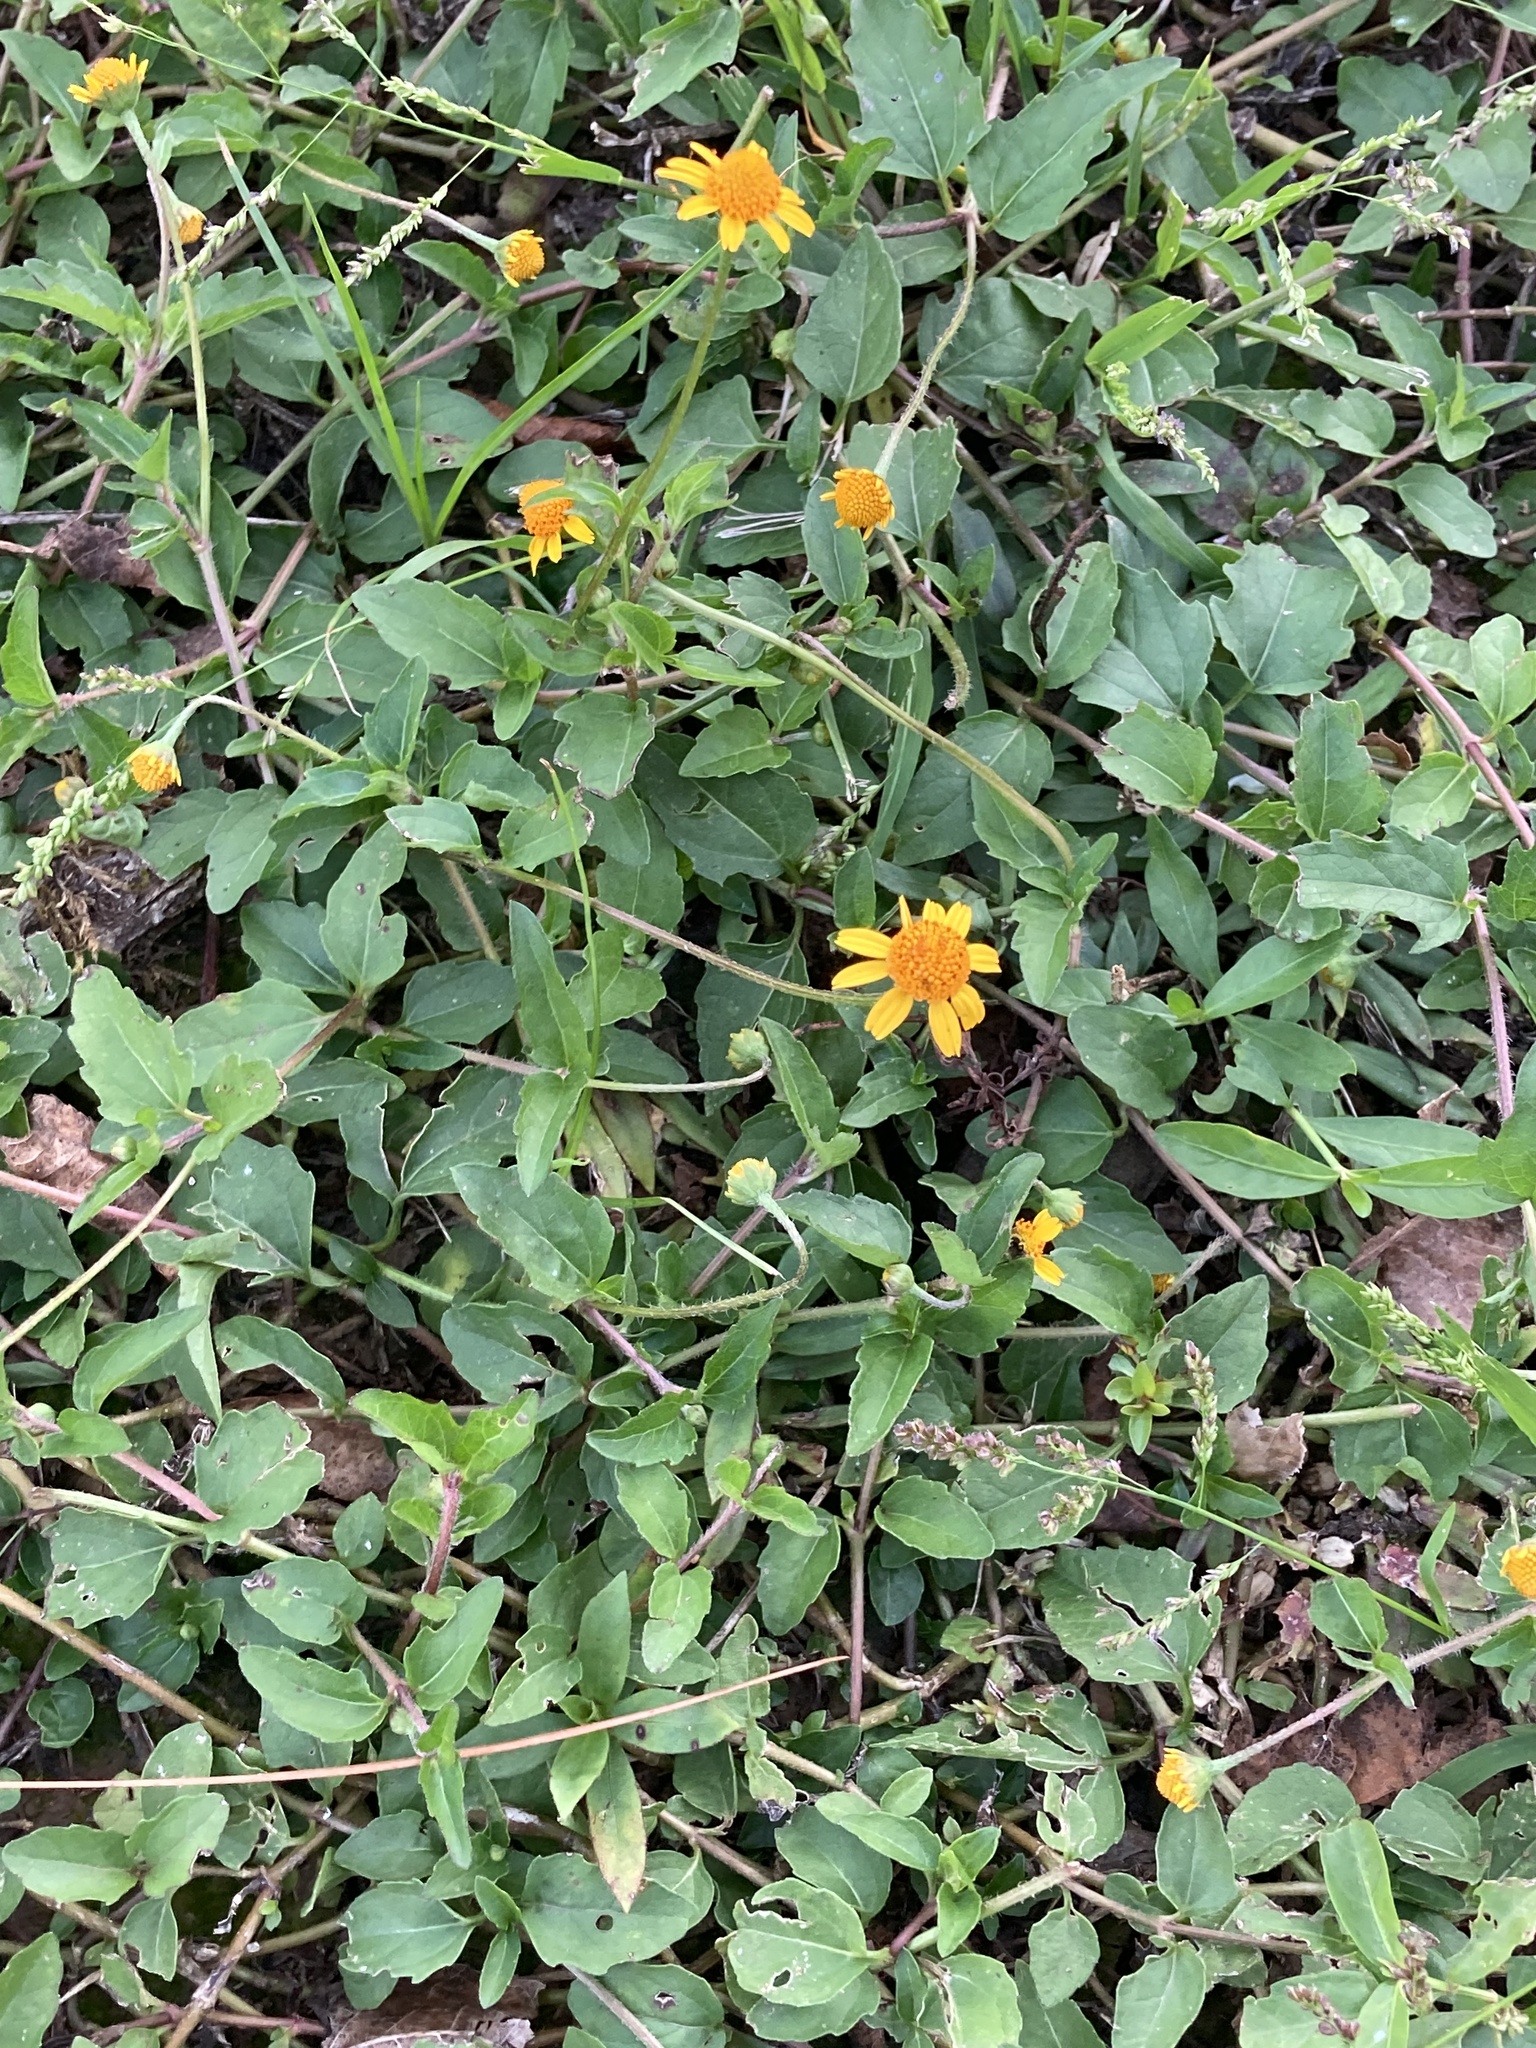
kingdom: Plantae
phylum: Tracheophyta
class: Magnoliopsida
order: Asterales
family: Asteraceae
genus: Acmella
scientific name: Acmella repens
